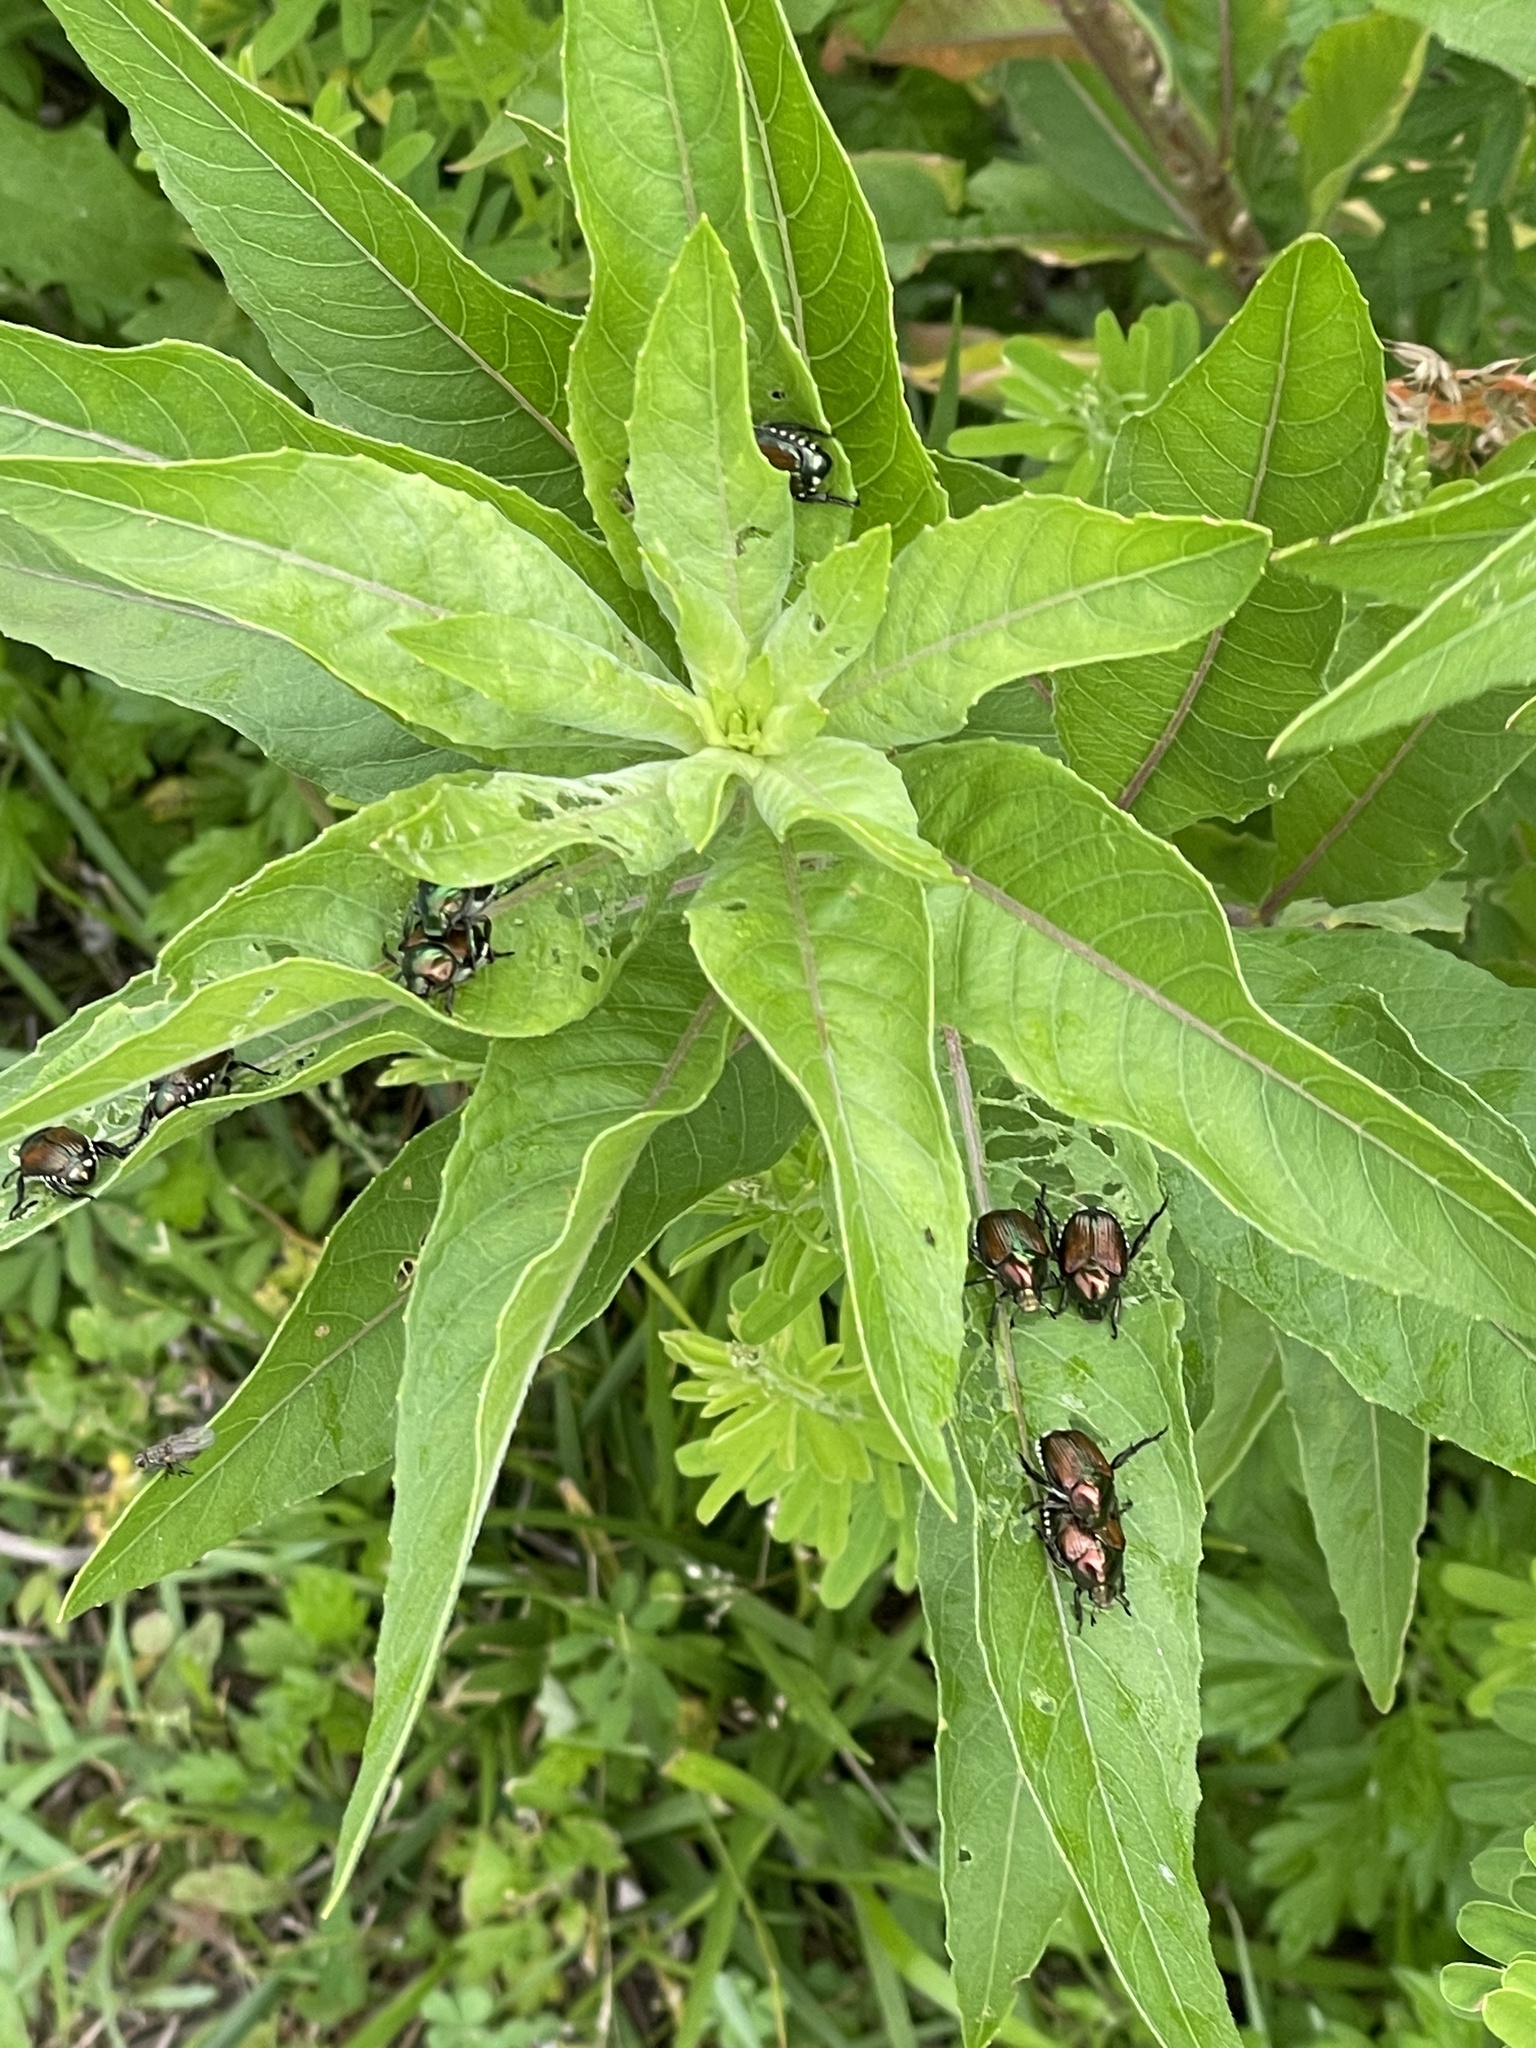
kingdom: Animalia
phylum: Arthropoda
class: Insecta
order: Coleoptera
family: Scarabaeidae
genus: Popillia
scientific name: Popillia japonica
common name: Japanese beetle
